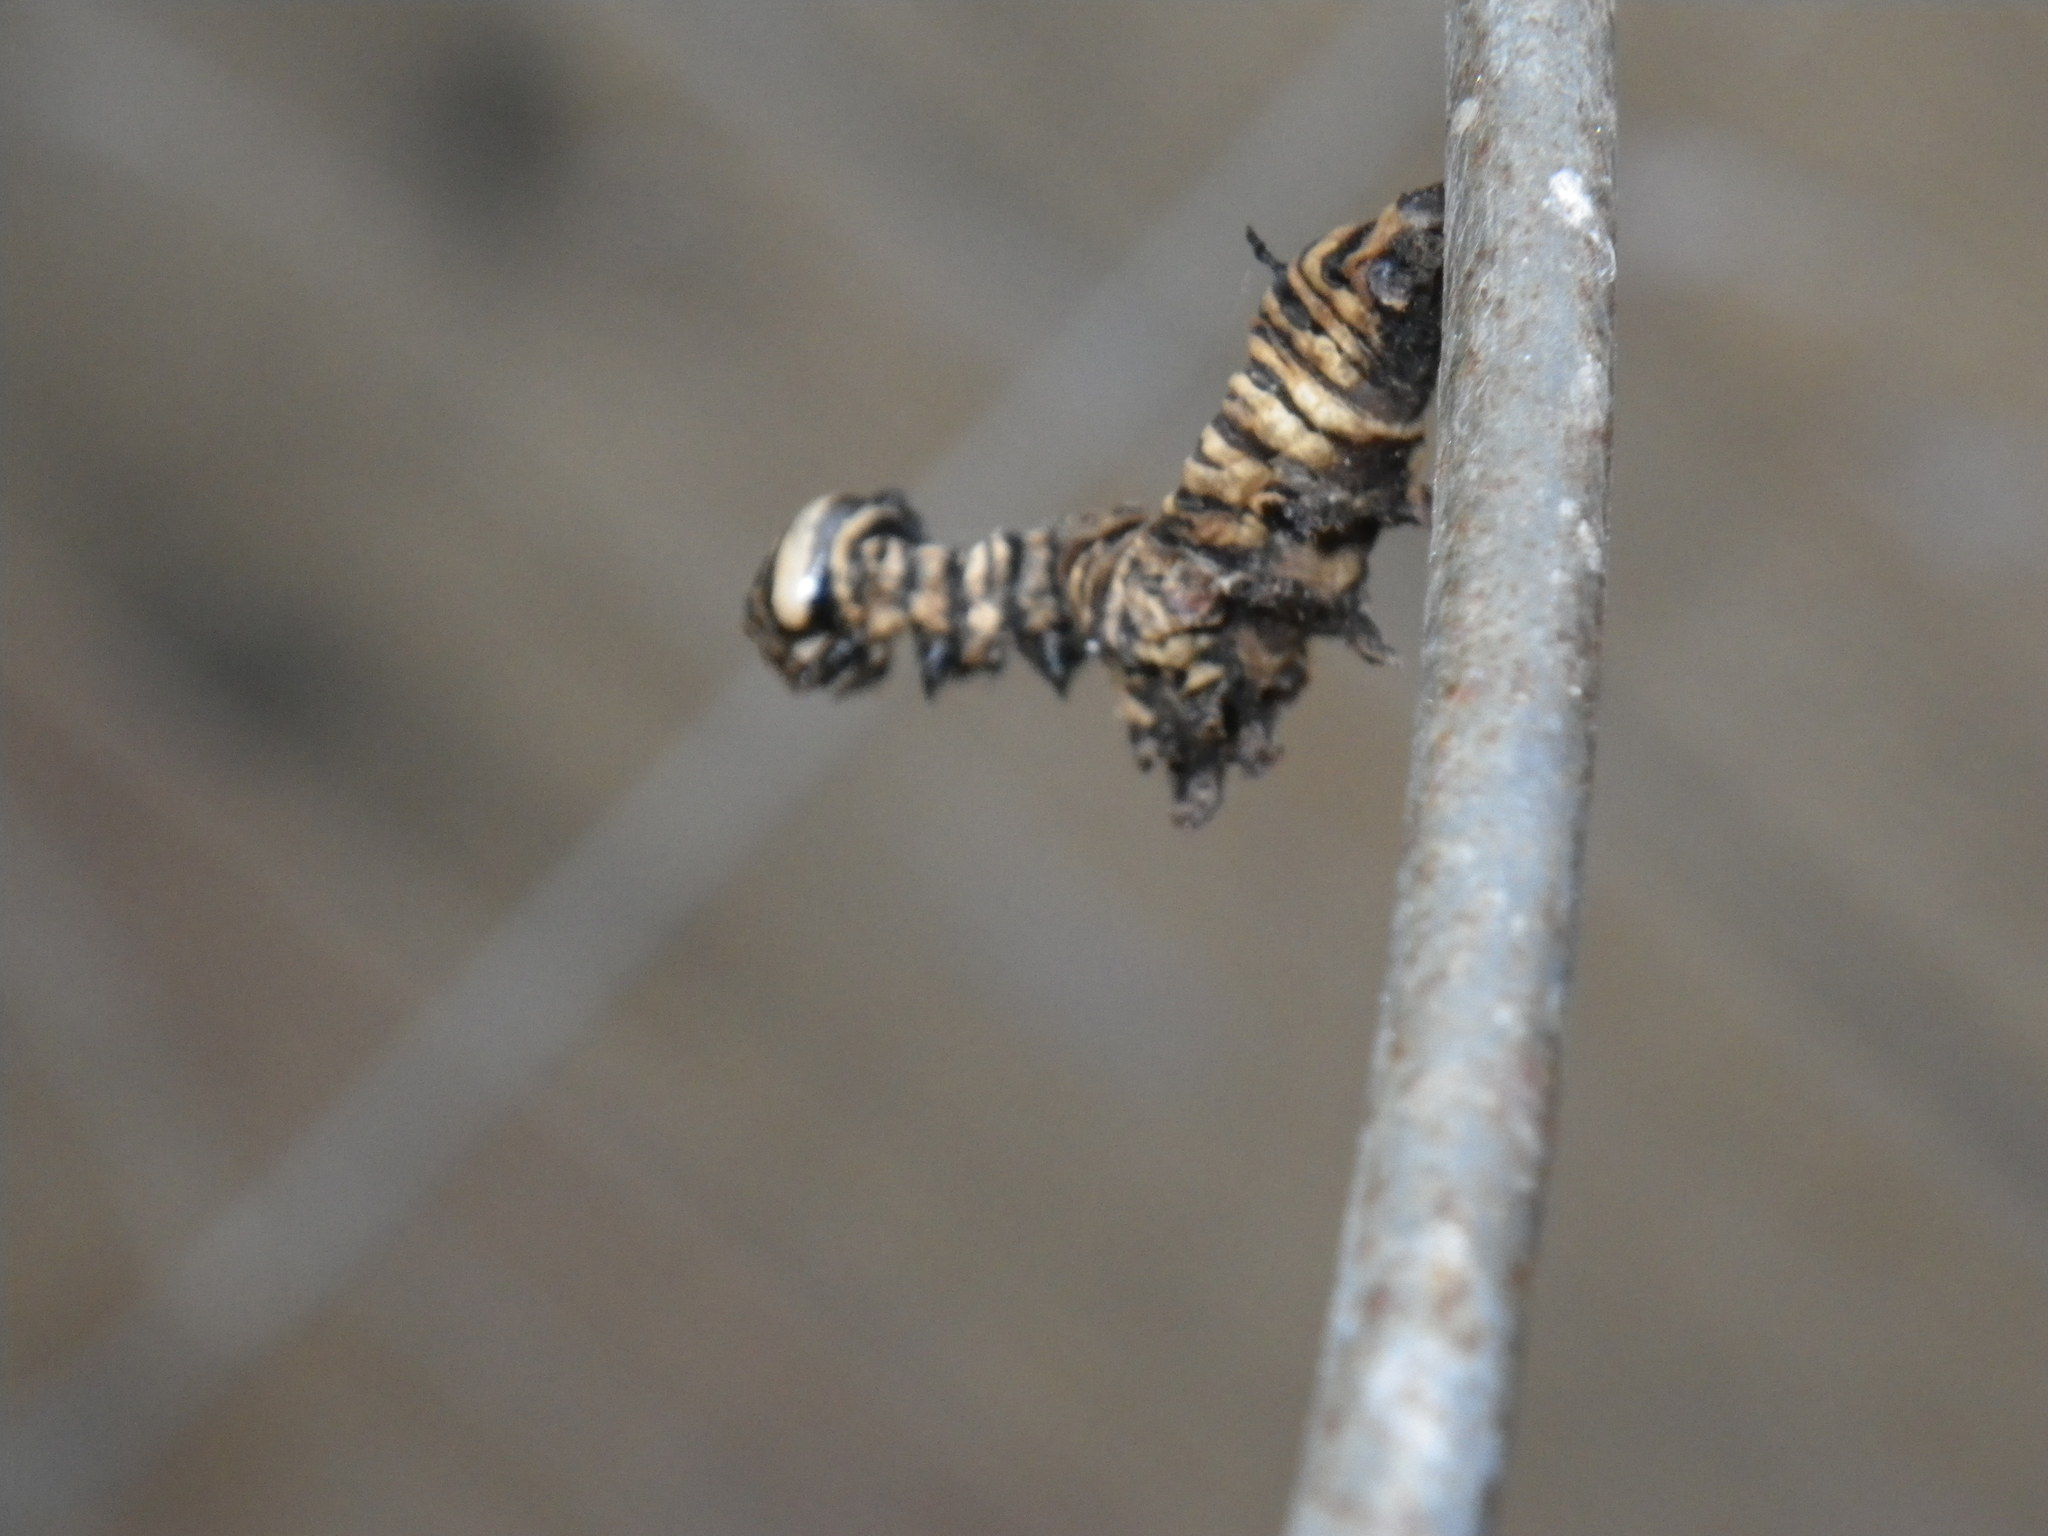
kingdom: Animalia
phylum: Arthropoda
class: Insecta
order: Lepidoptera
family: Nymphalidae
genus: Danaus
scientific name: Danaus plexippus
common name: Monarch
